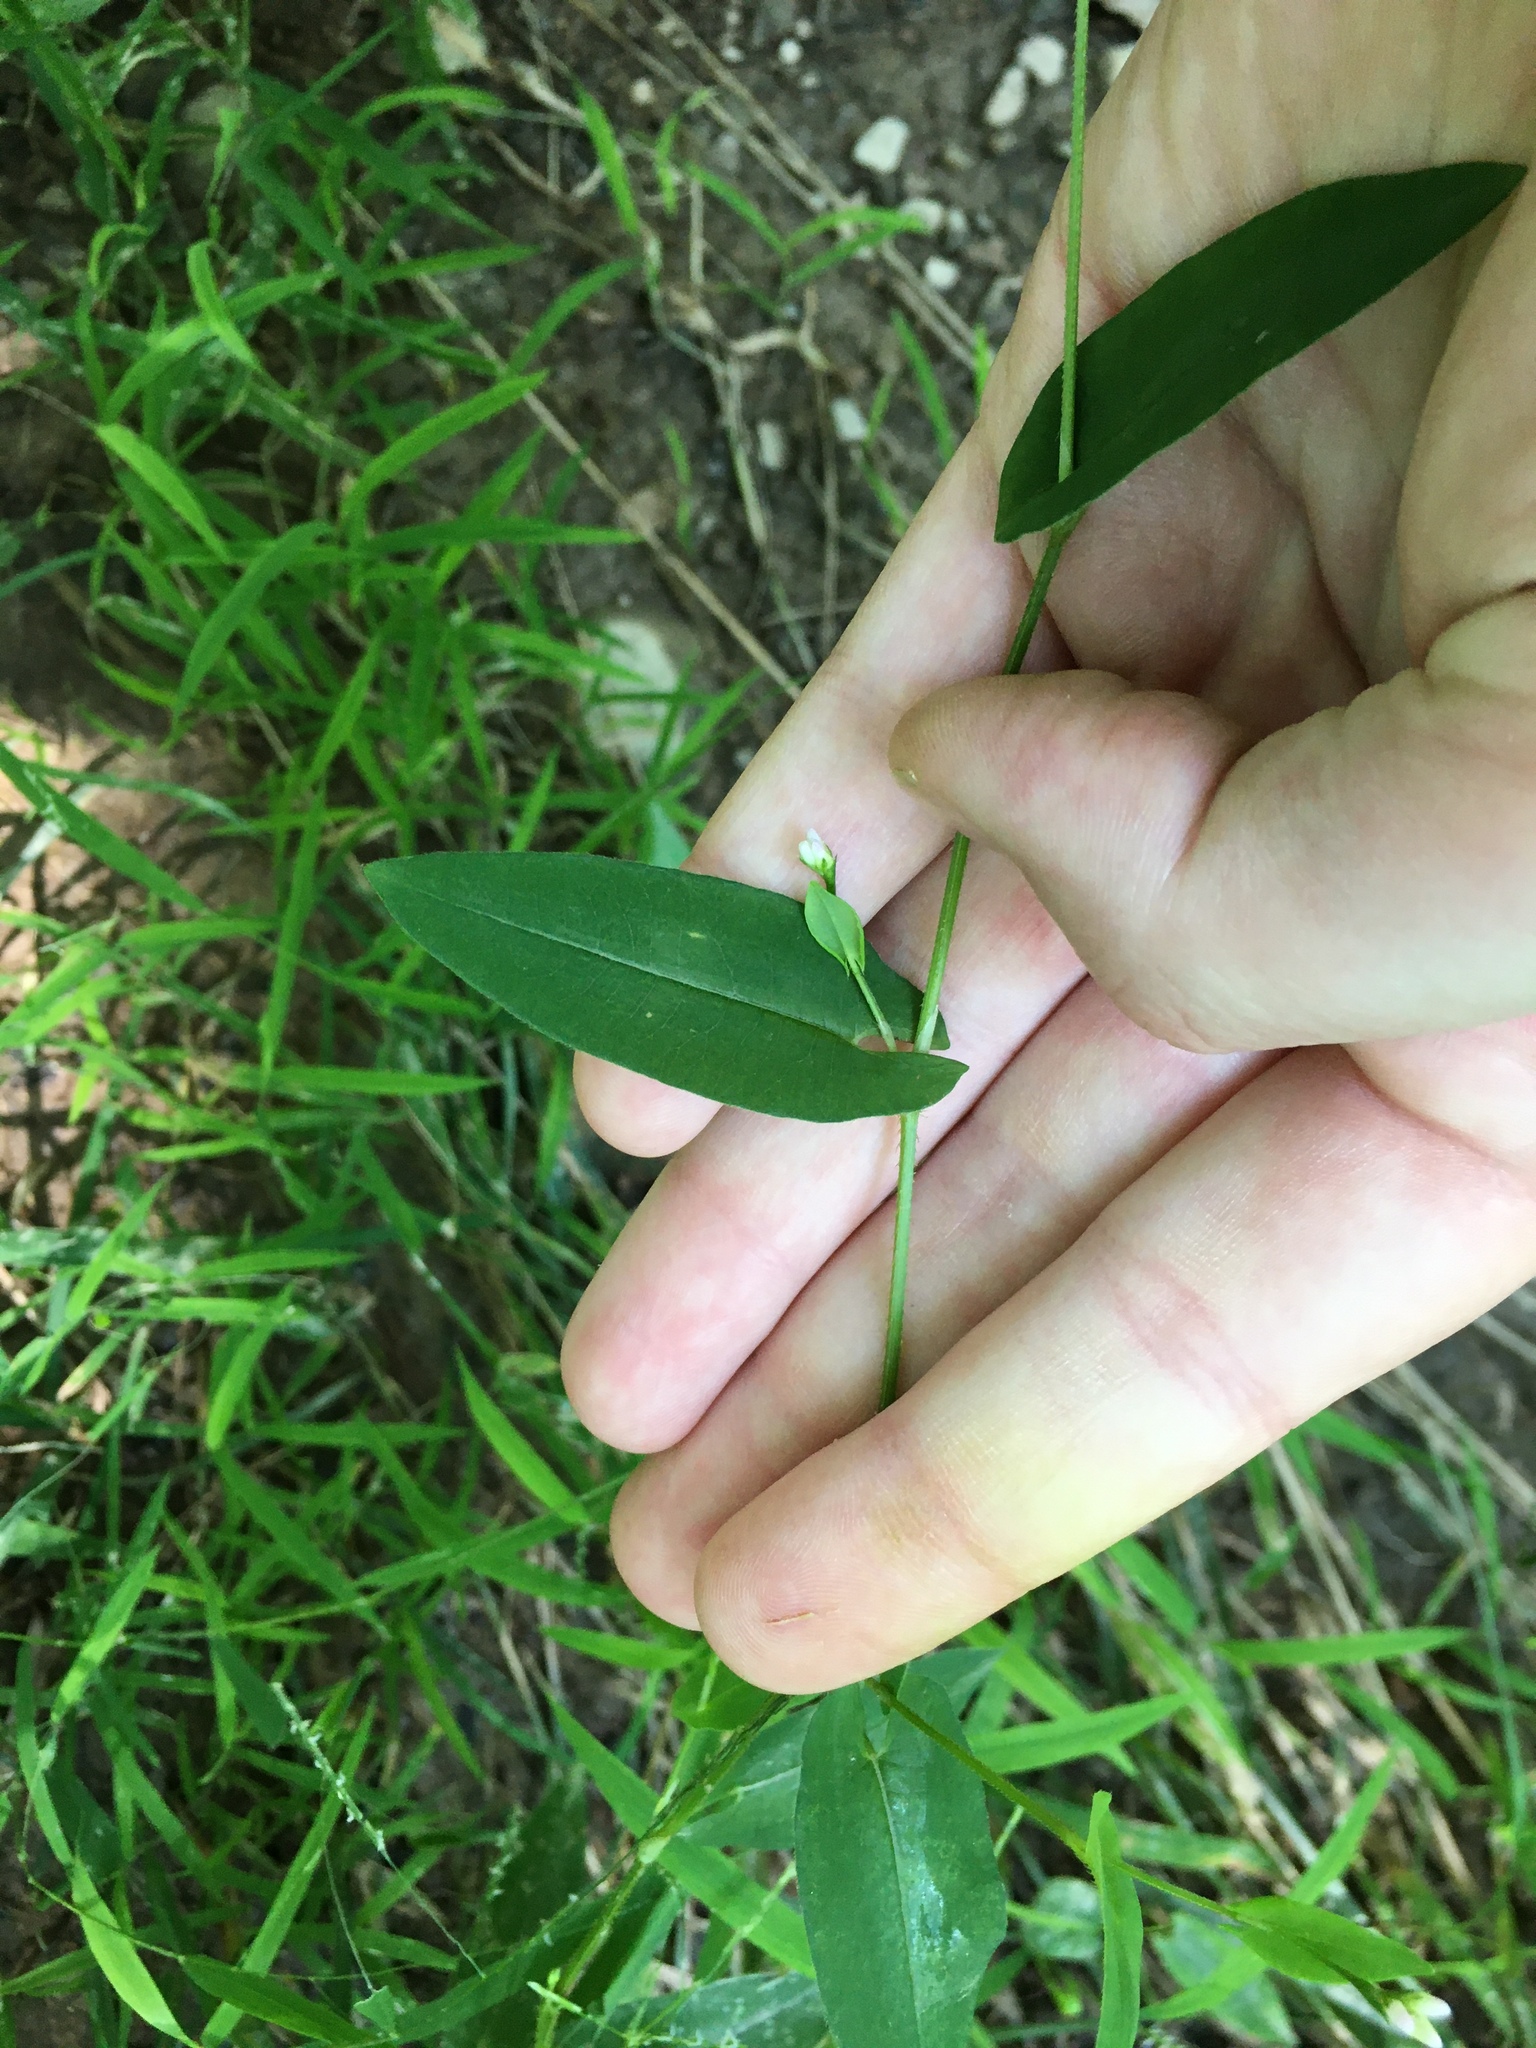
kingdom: Plantae
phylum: Tracheophyta
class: Magnoliopsida
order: Caryophyllales
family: Polygonaceae
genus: Persicaria
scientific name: Persicaria sagittata
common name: American tearthumb
